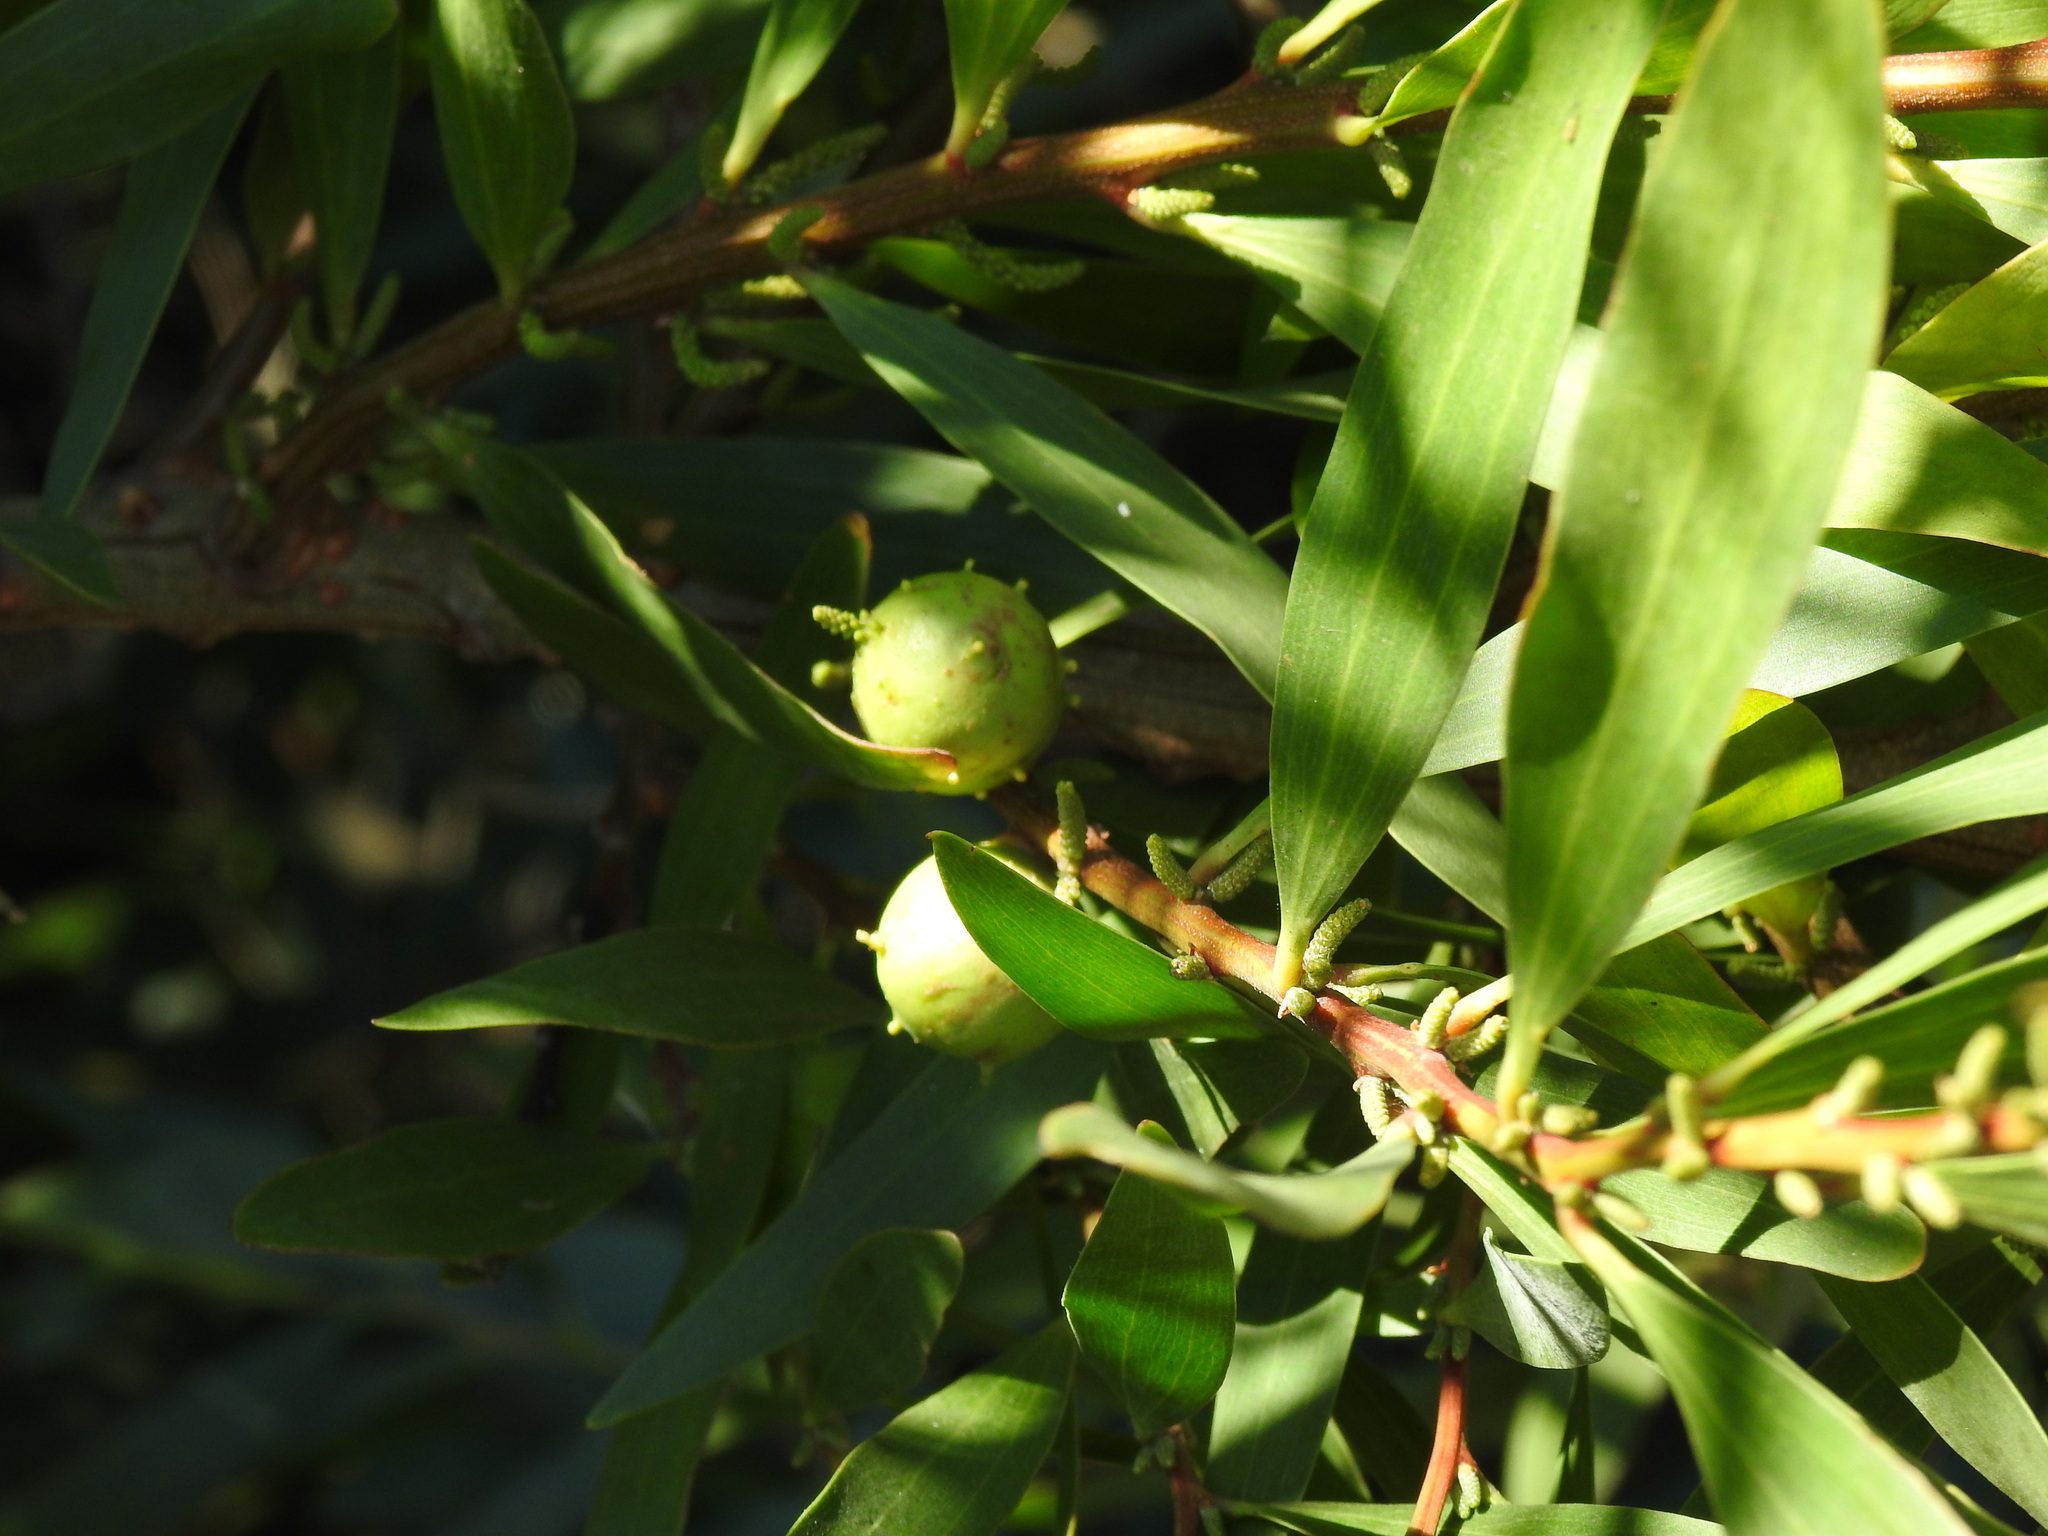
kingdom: Animalia
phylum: Arthropoda
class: Insecta
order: Hymenoptera
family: Pteromalidae
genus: Trichilogaster
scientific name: Trichilogaster acaciaelongifoliae
